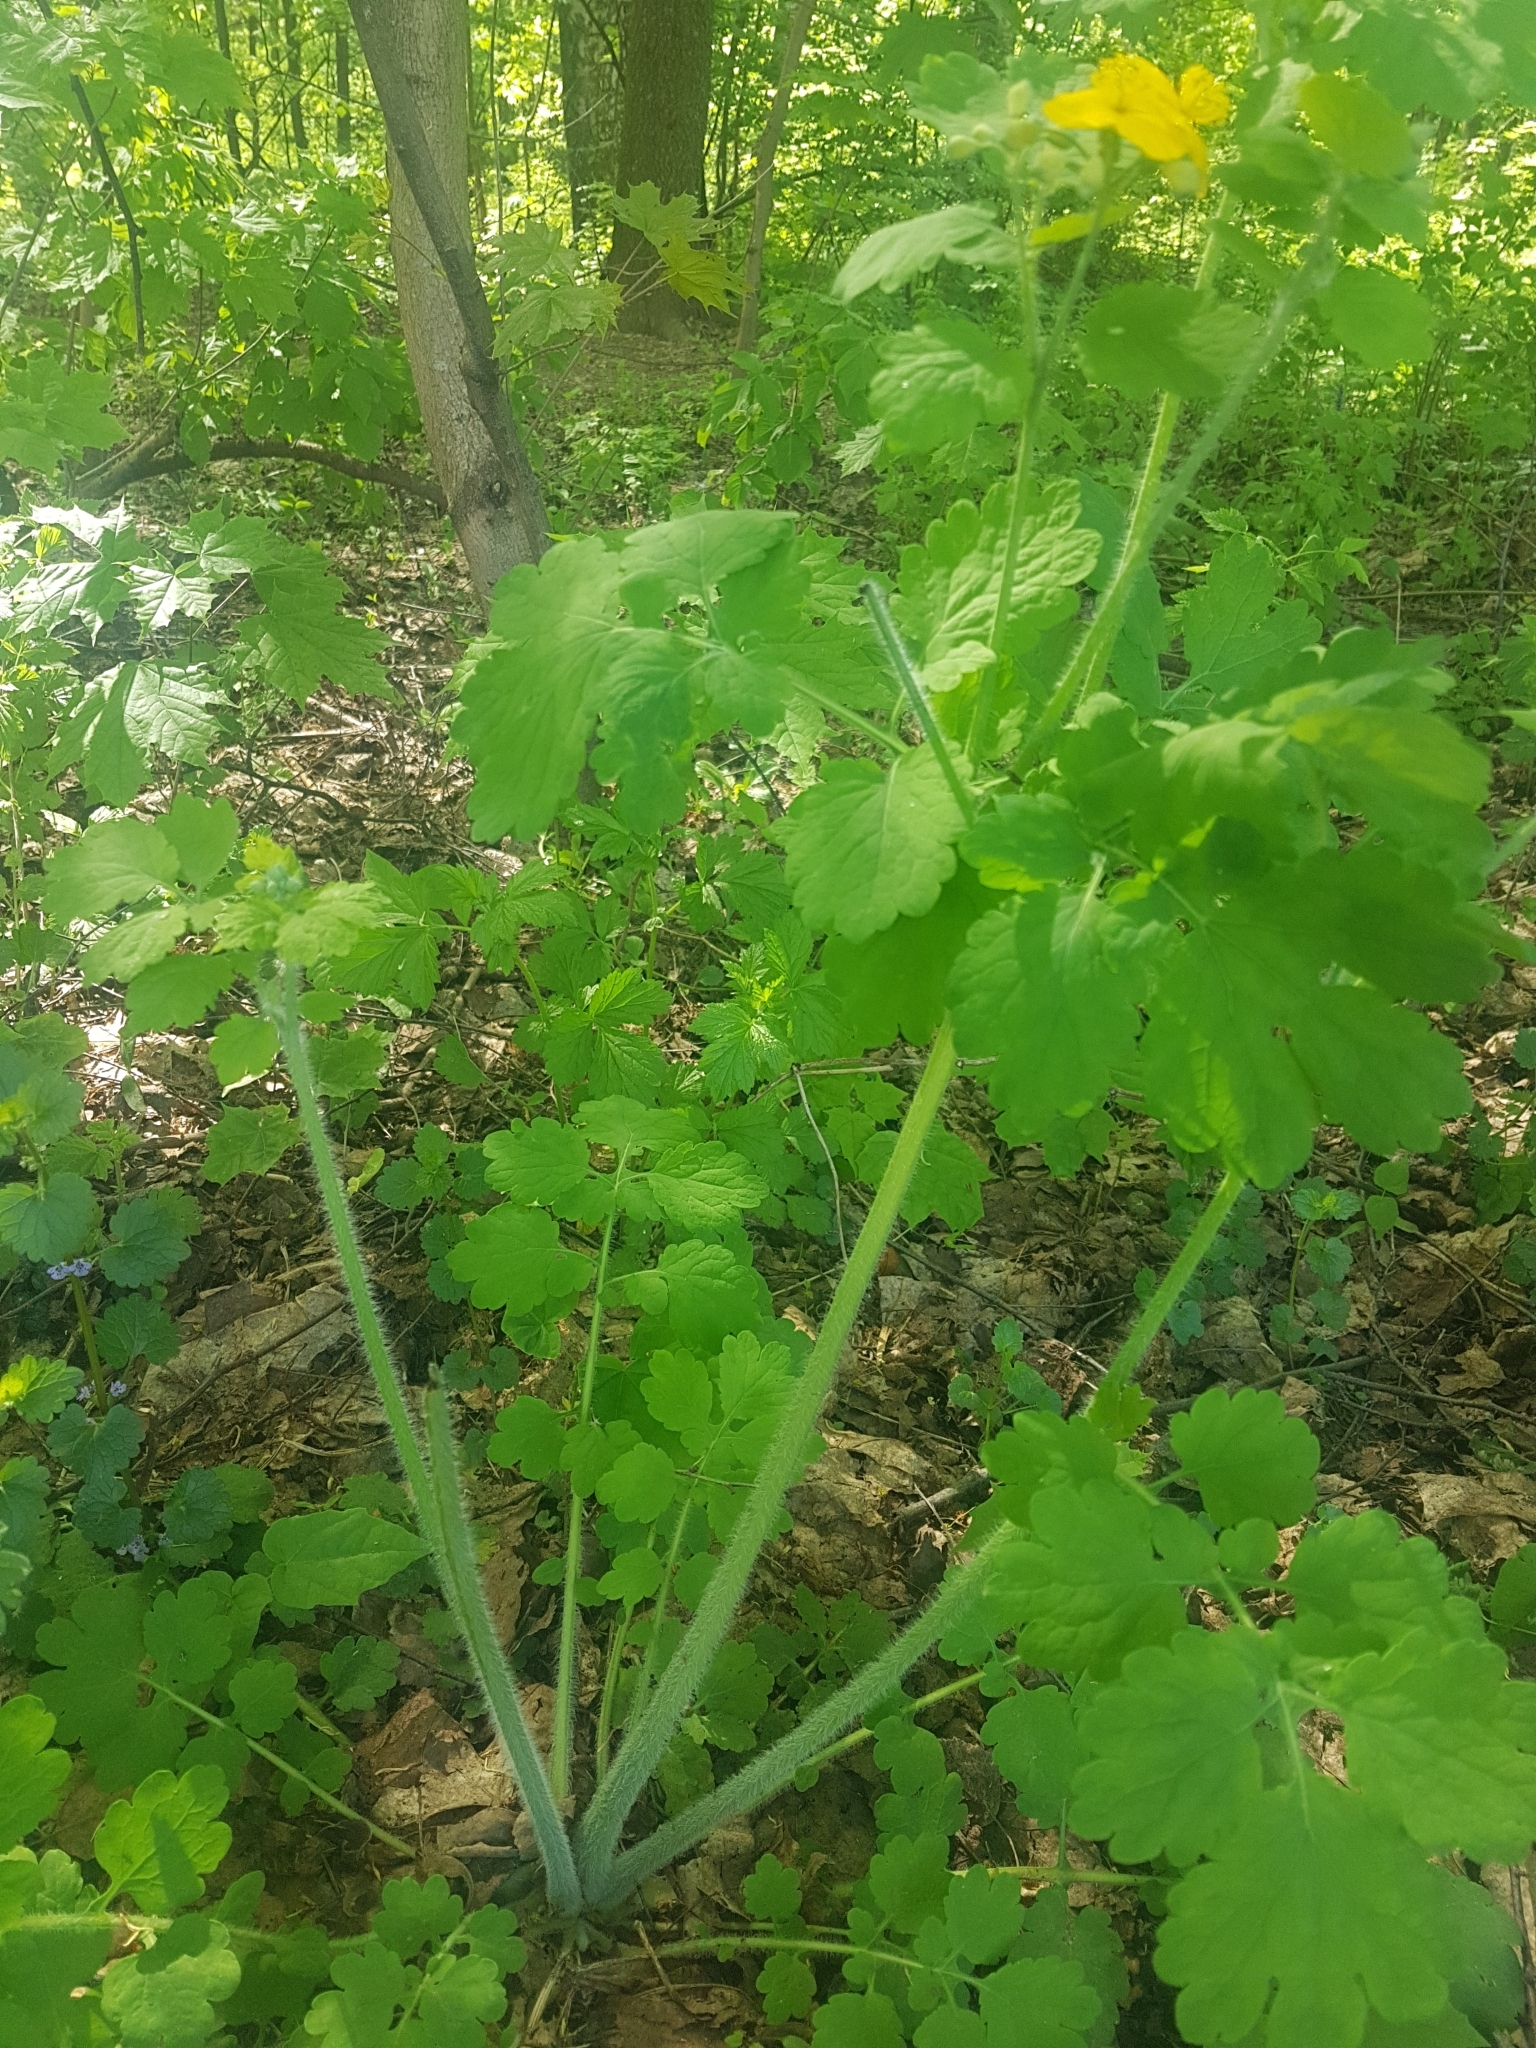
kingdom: Plantae
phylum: Tracheophyta
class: Magnoliopsida
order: Ranunculales
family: Papaveraceae
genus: Chelidonium
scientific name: Chelidonium majus
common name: Greater celandine
